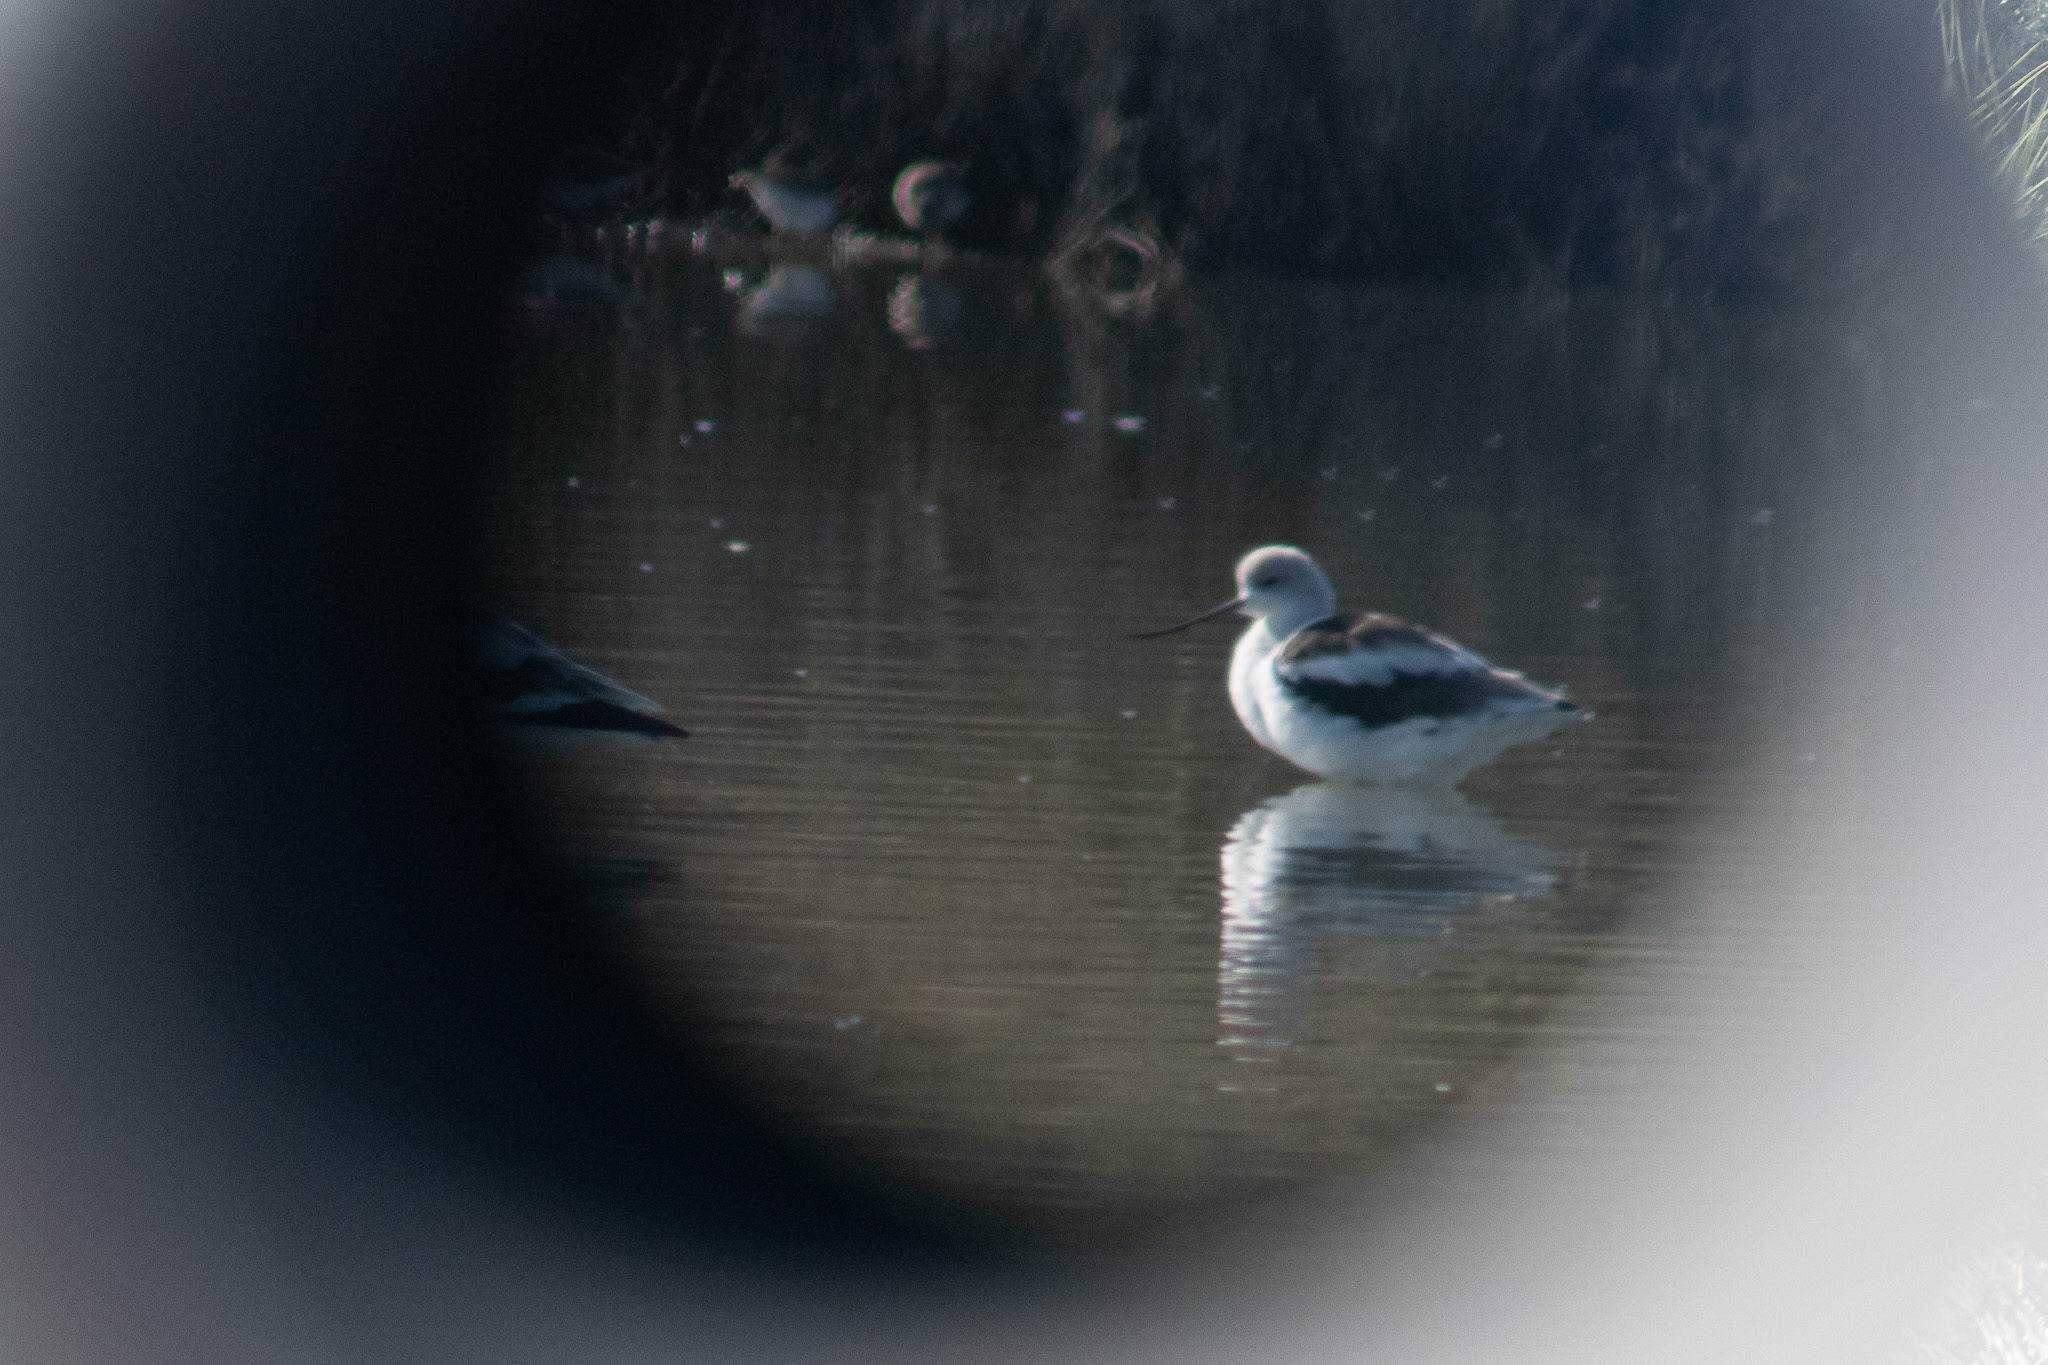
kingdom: Animalia
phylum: Chordata
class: Aves
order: Charadriiformes
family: Recurvirostridae
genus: Recurvirostra
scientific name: Recurvirostra americana
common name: American avocet
